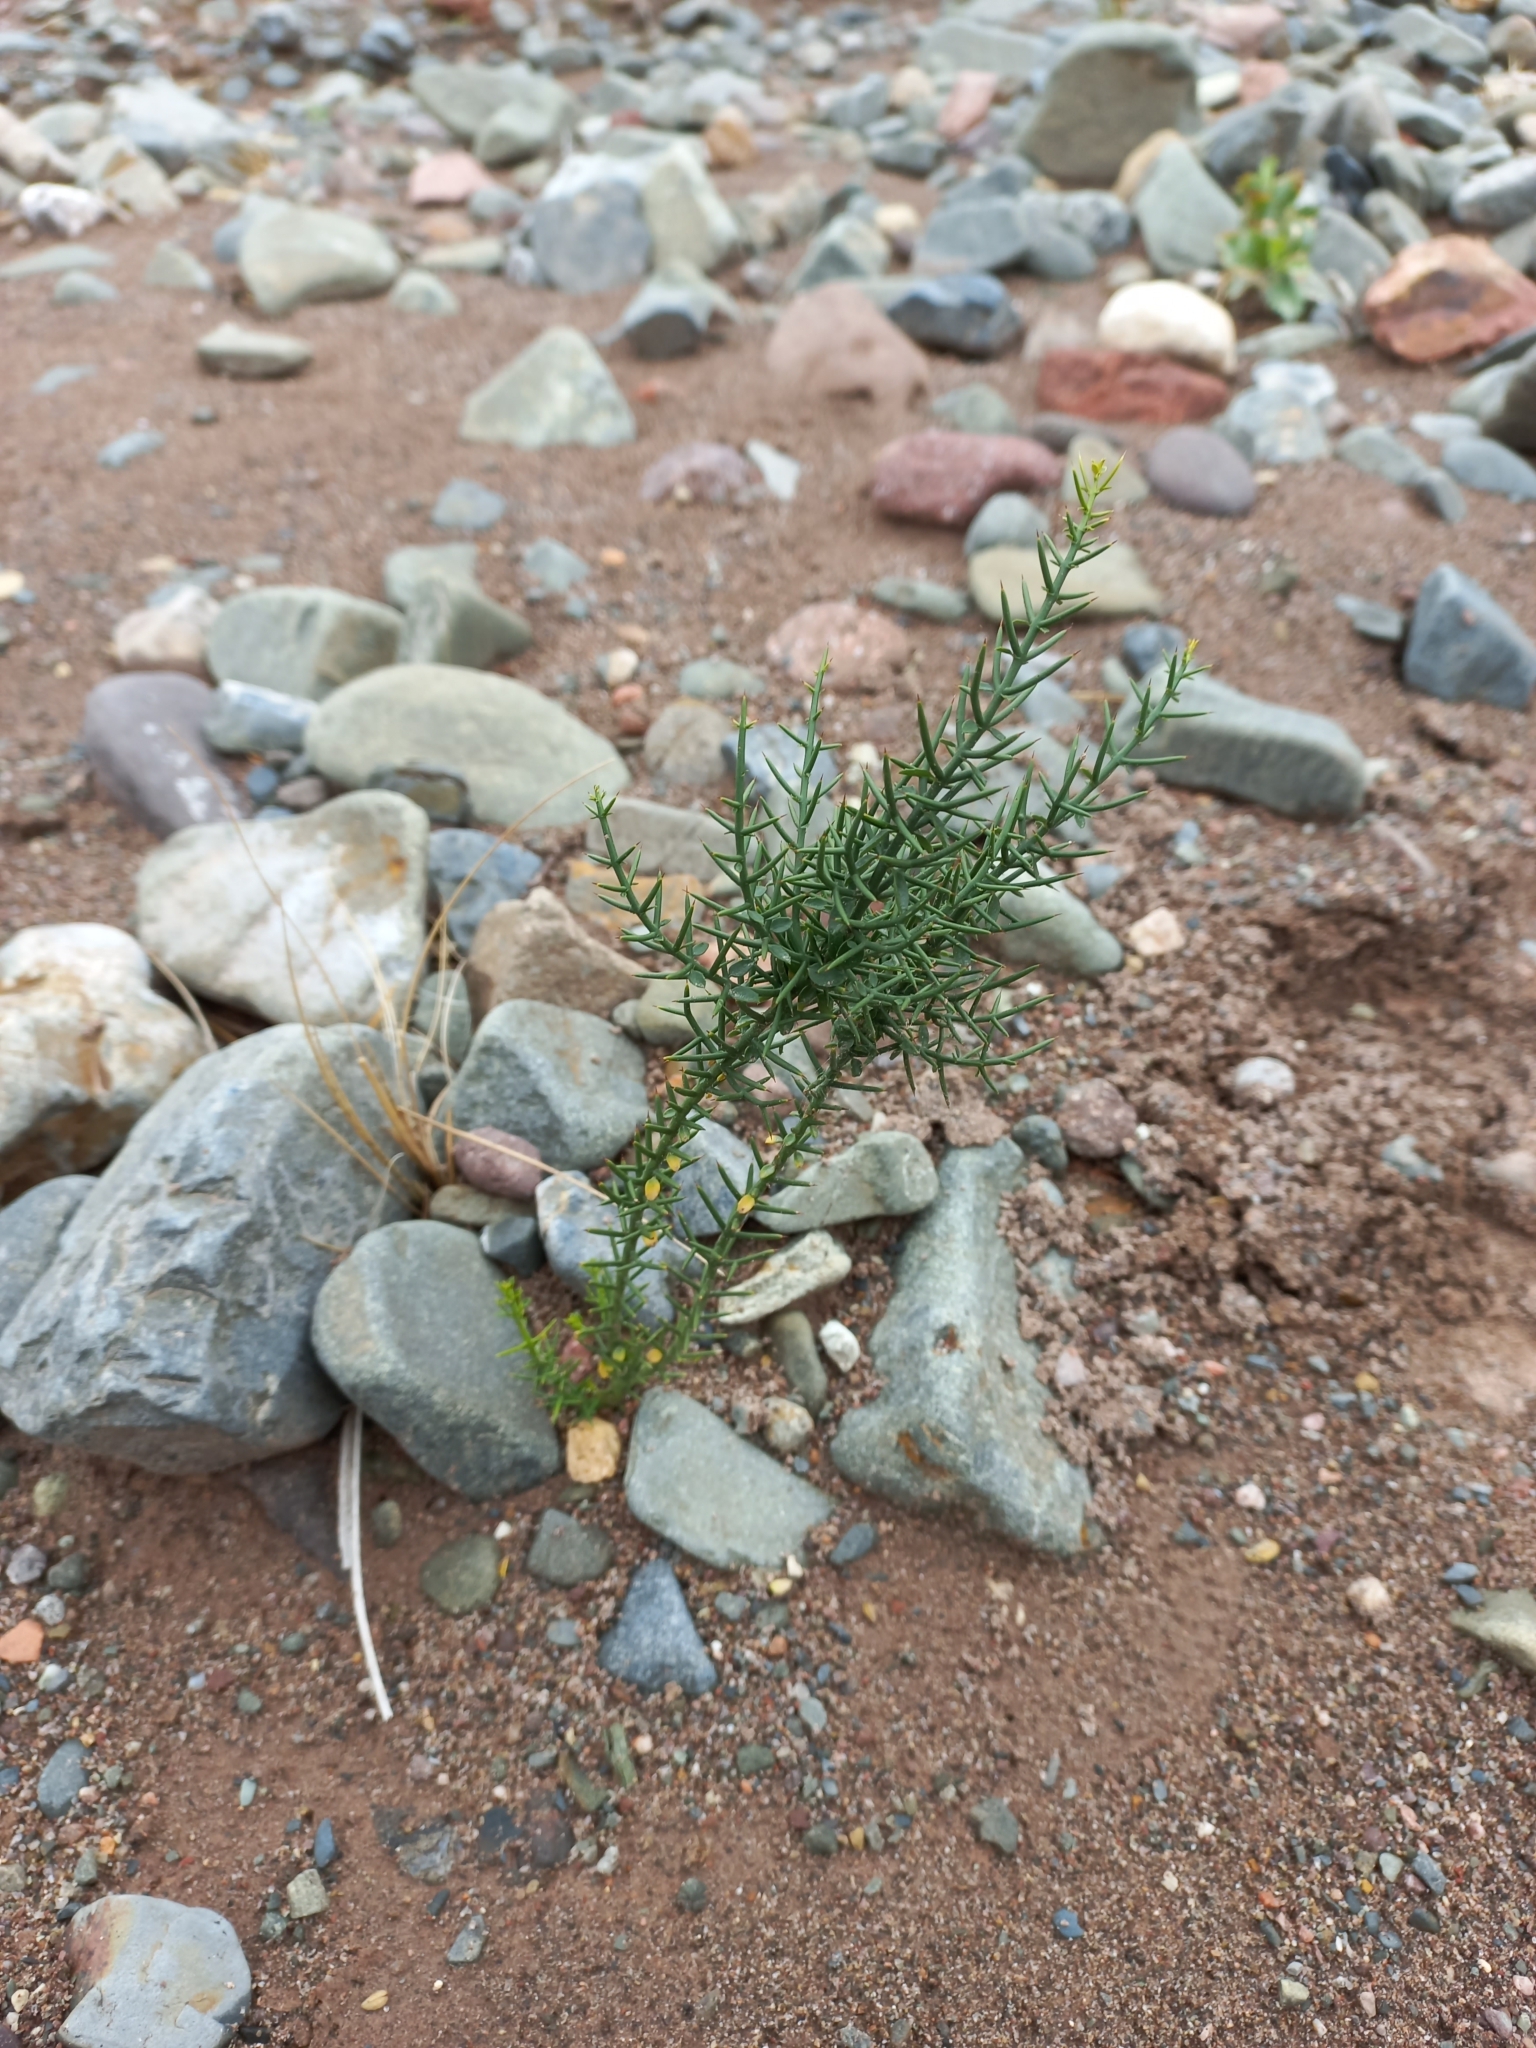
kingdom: Plantae
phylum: Tracheophyta
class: Magnoliopsida
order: Rosales
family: Rhamnaceae
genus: Colletia
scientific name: Colletia spinosissima
